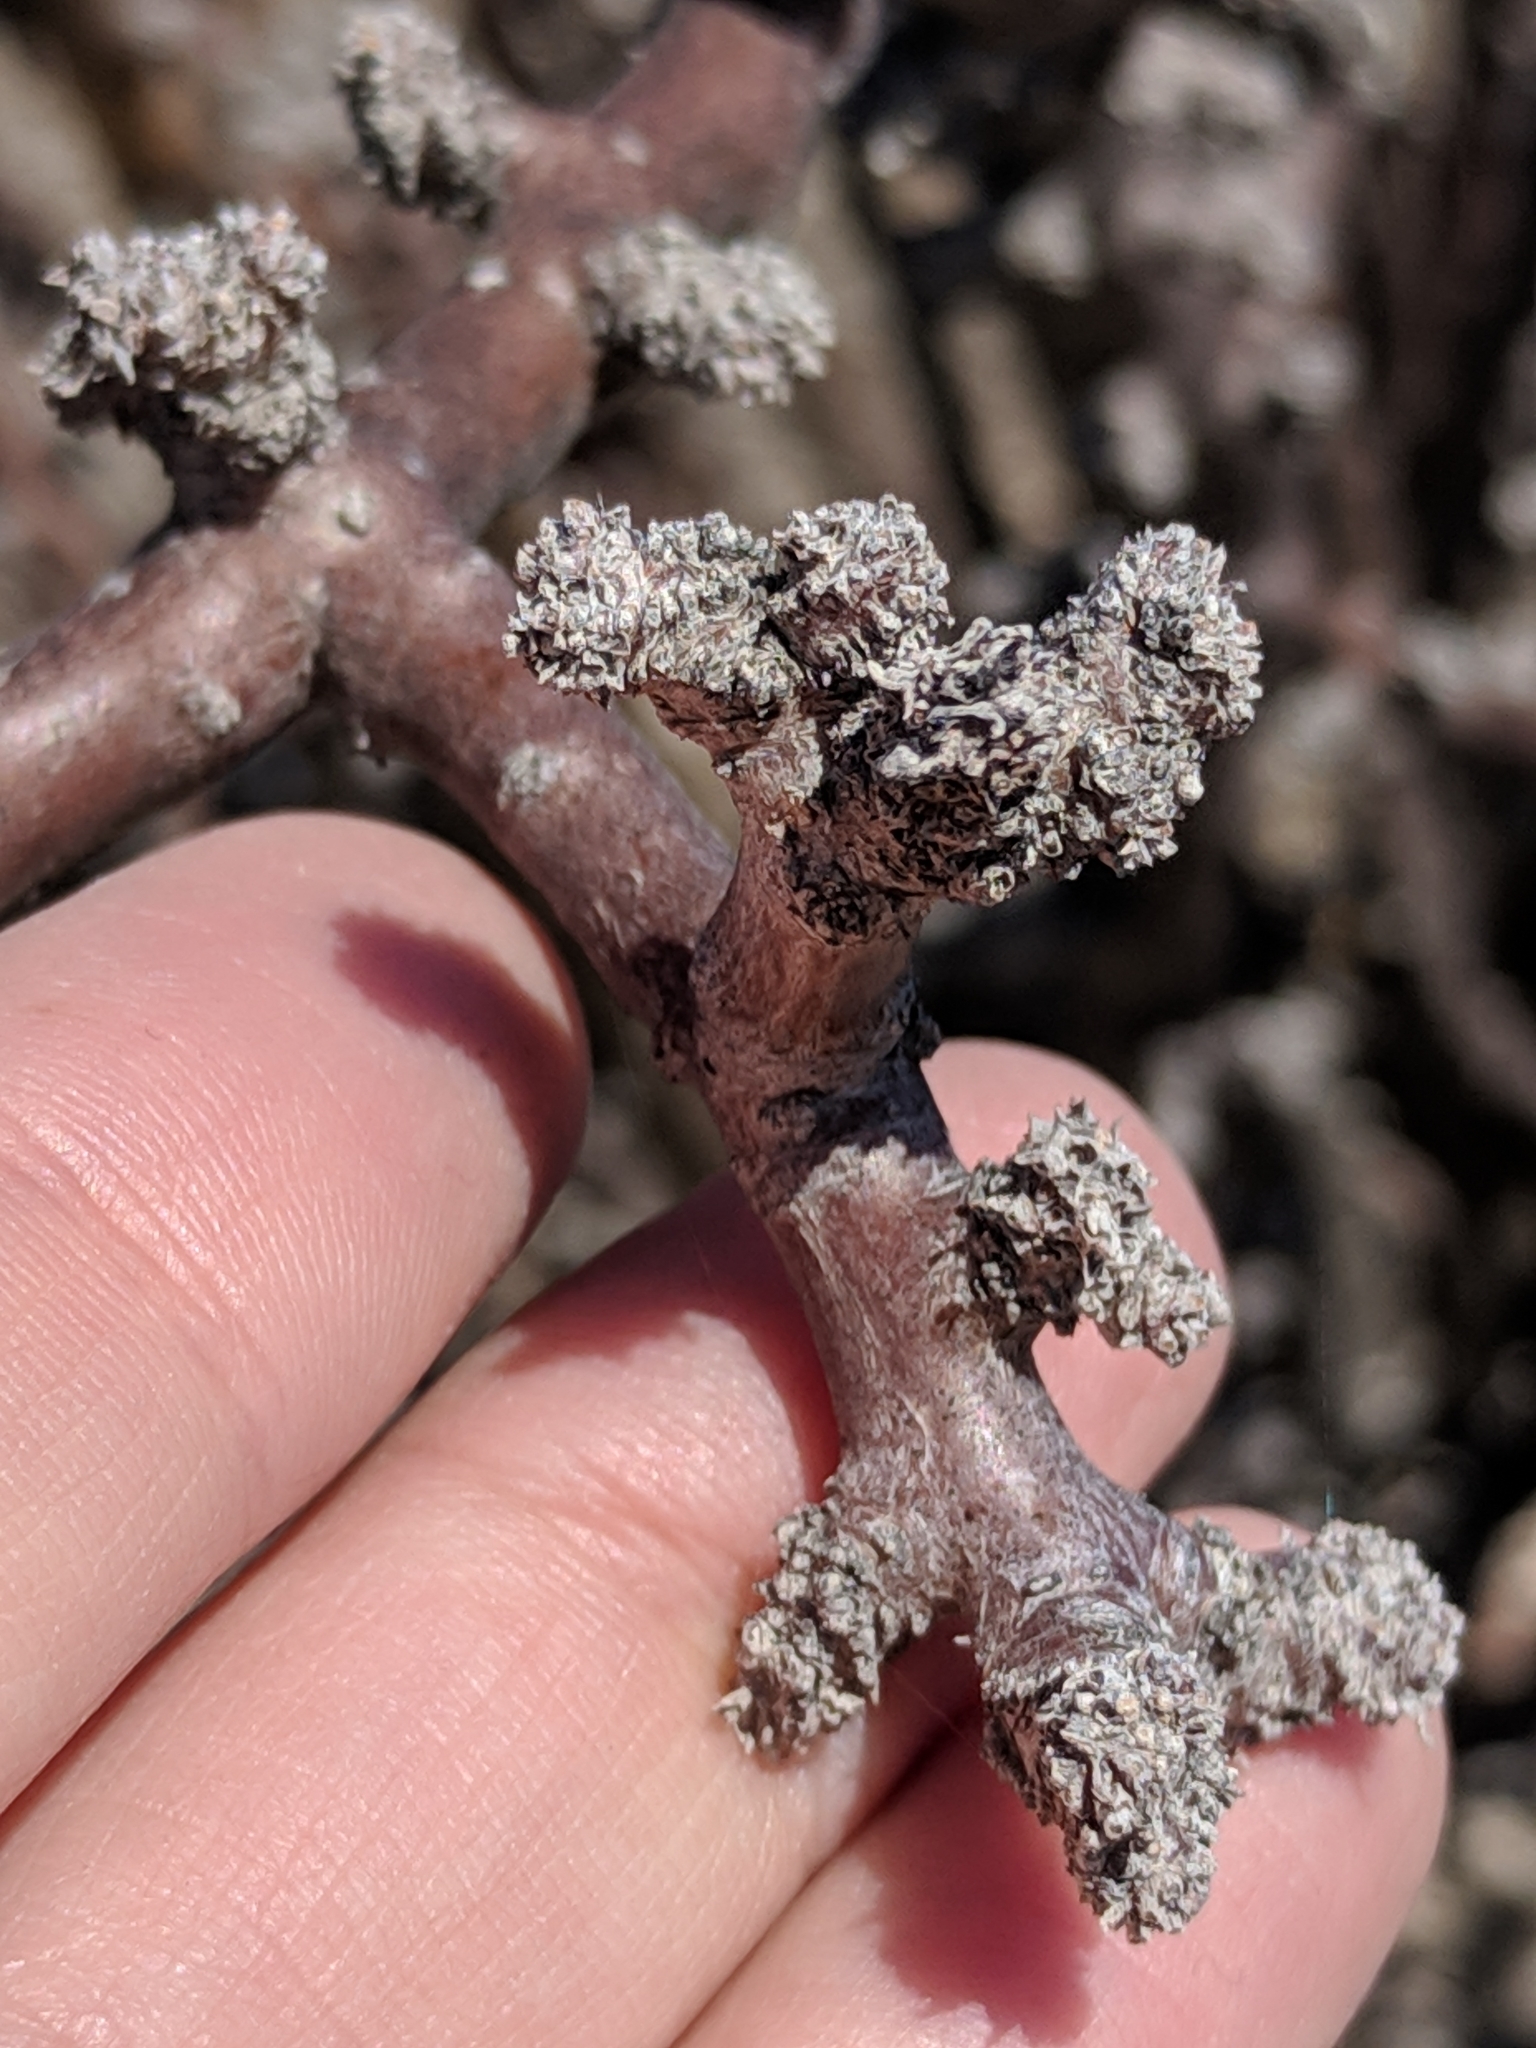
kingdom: Plantae
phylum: Tracheophyta
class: Magnoliopsida
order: Malpighiales
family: Euphorbiaceae
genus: Jatropha
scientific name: Jatropha dioica
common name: Leatherstem
